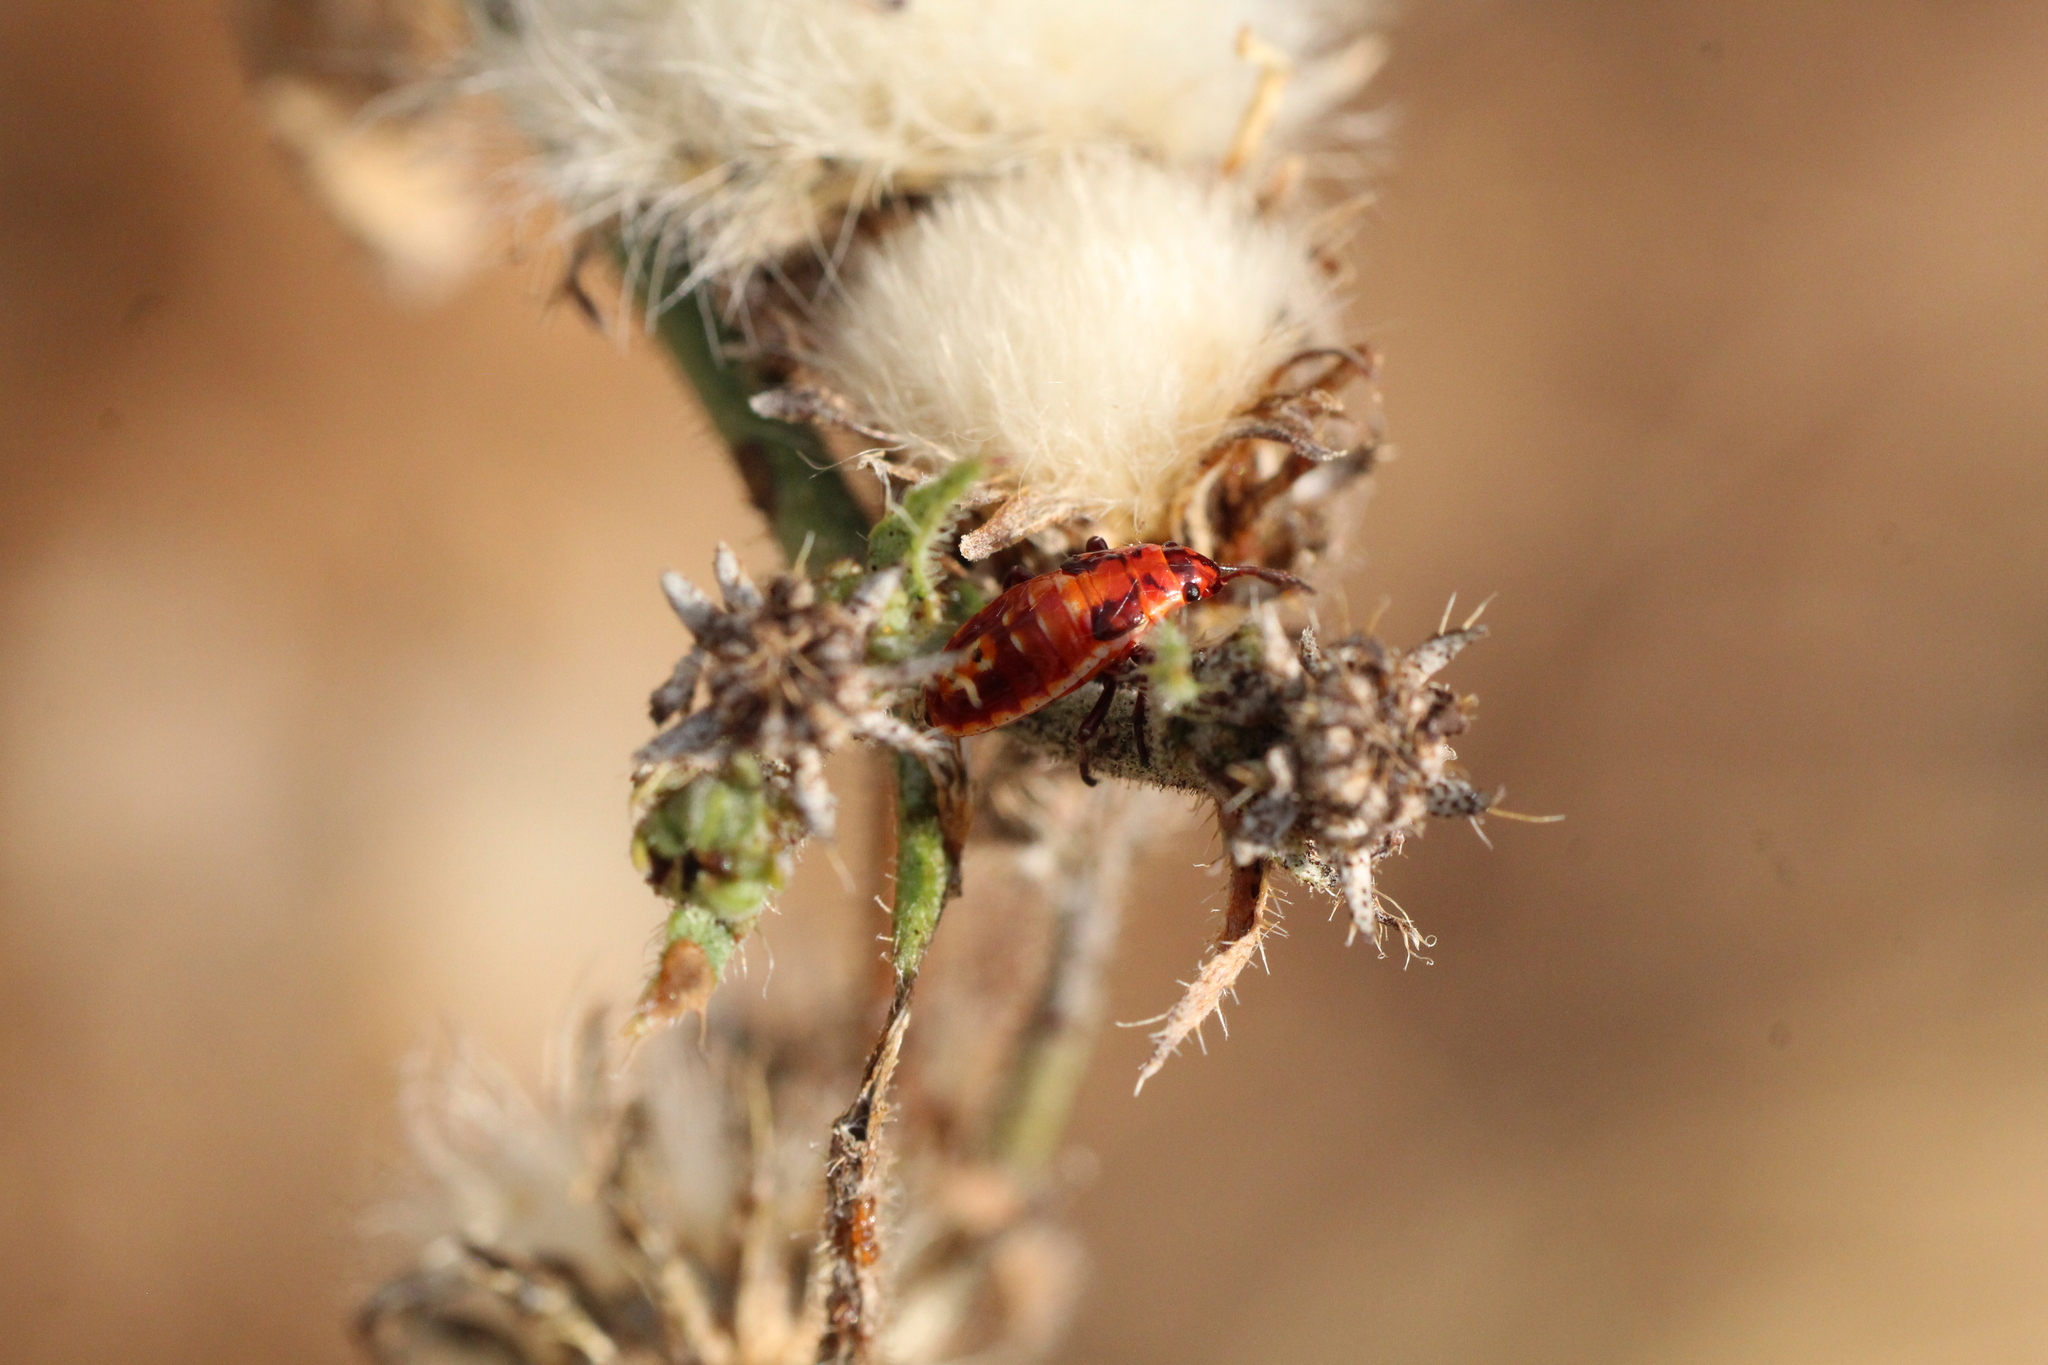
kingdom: Animalia
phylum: Arthropoda
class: Insecta
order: Hemiptera
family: Lygaeidae
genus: Spilostethus
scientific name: Spilostethus pandurus
